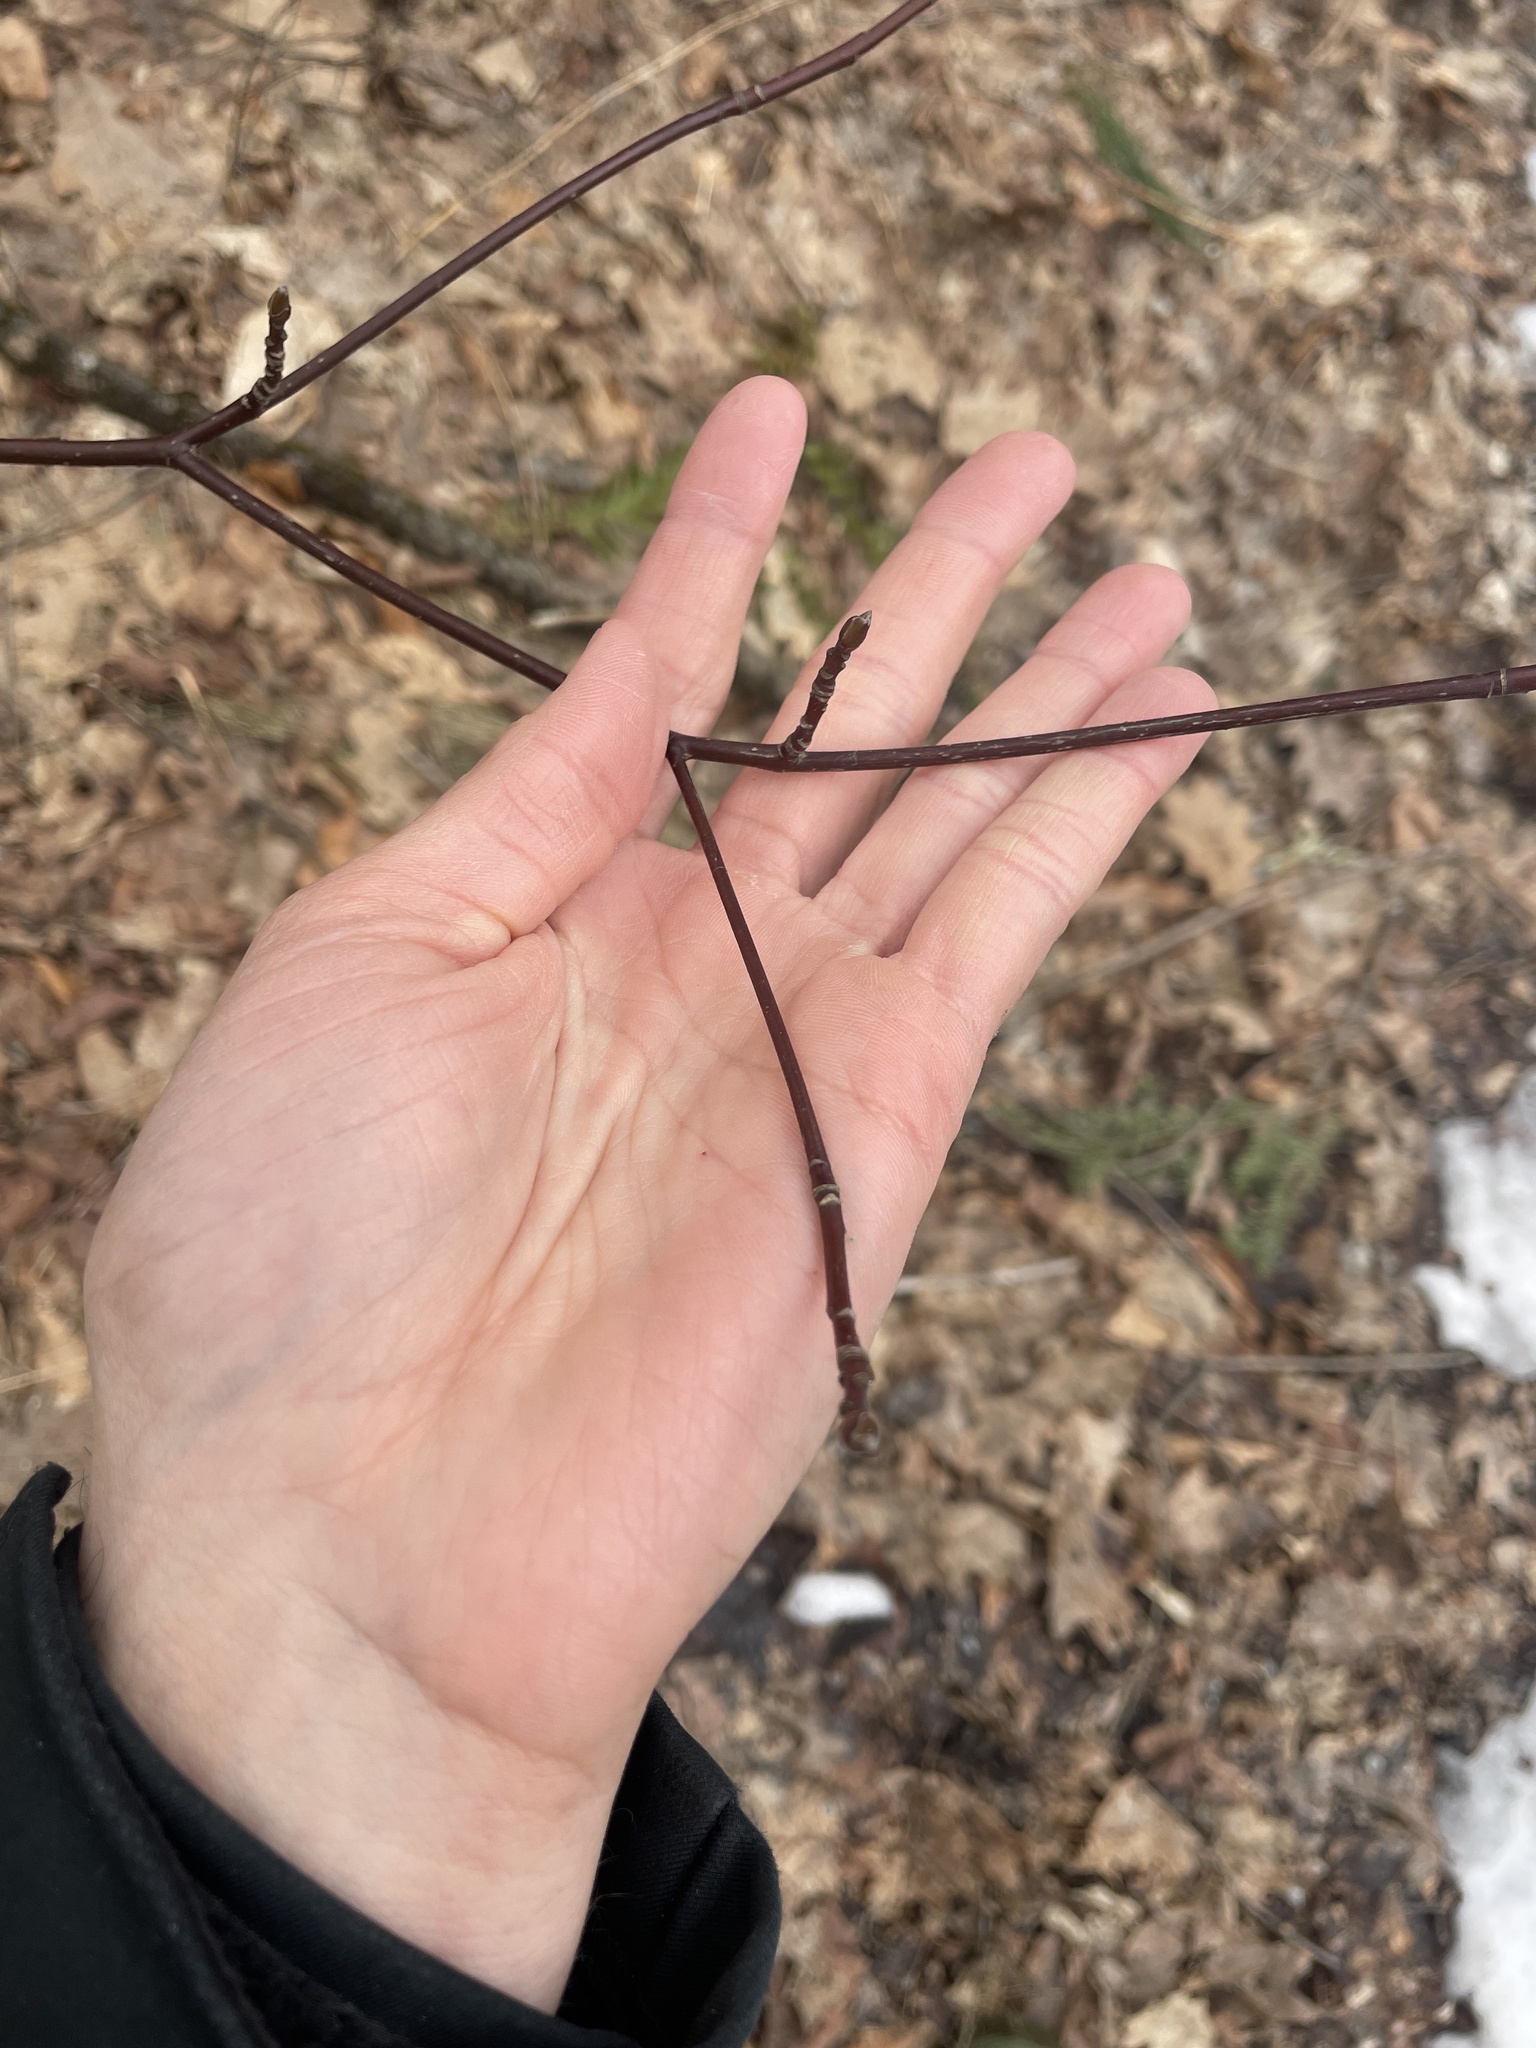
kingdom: Plantae
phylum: Tracheophyta
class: Magnoliopsida
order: Cornales
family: Cornaceae
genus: Cornus
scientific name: Cornus alternifolia
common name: Pagoda dogwood
